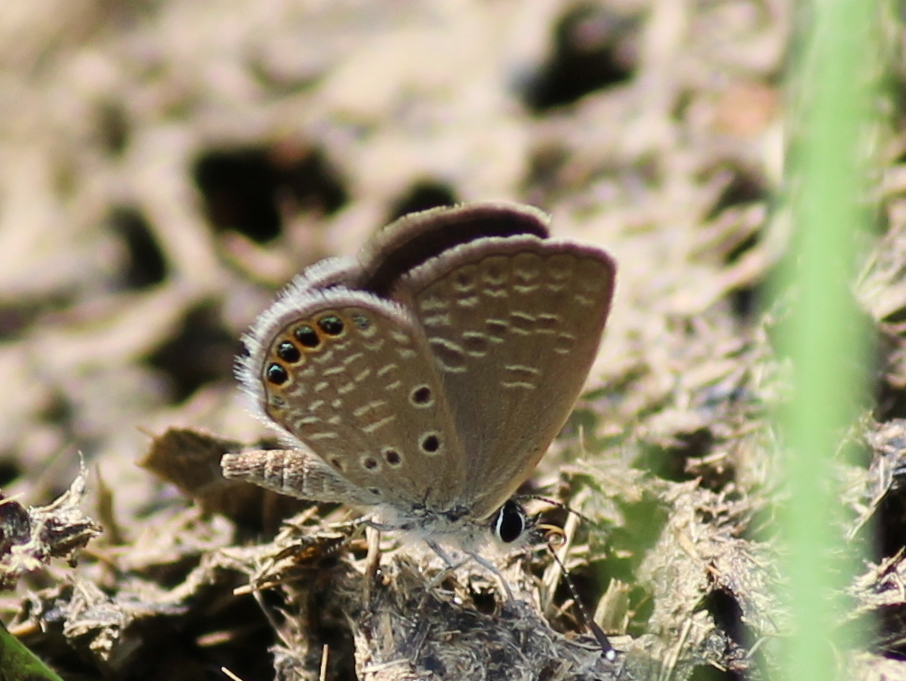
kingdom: Animalia
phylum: Arthropoda
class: Insecta
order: Lepidoptera
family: Lycaenidae
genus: Freyeria
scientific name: Freyeria putli
